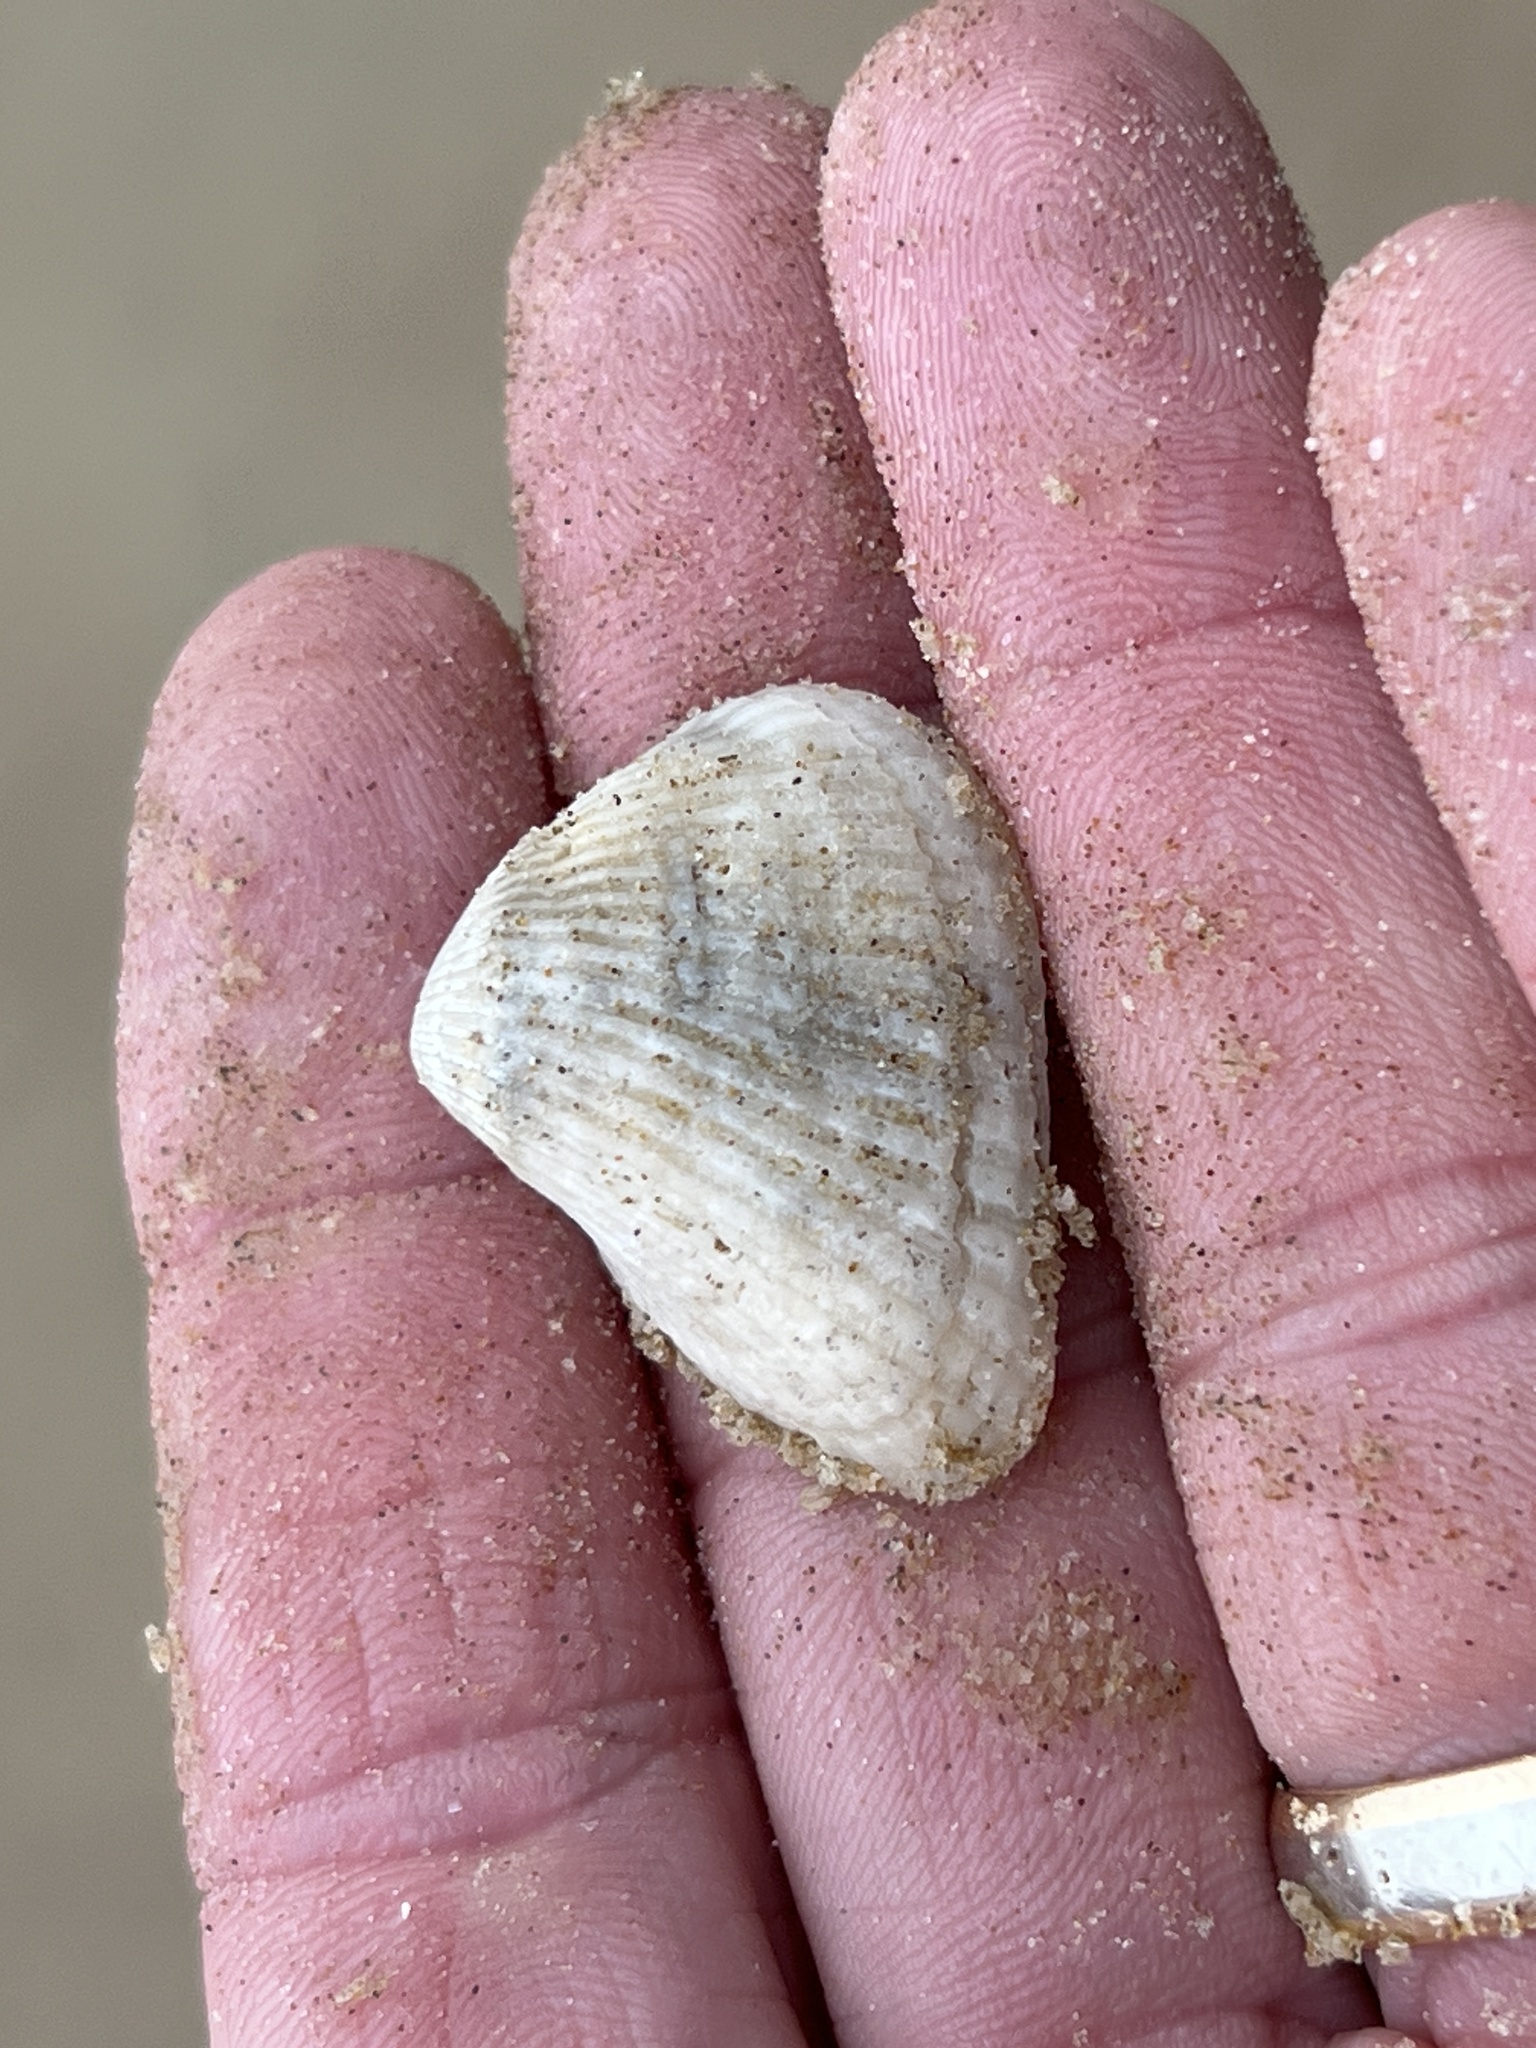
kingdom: Animalia
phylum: Mollusca
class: Bivalvia
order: Arcida
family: Noetiidae
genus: Noetia
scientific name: Noetia ponderosa
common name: Ponderous ark
